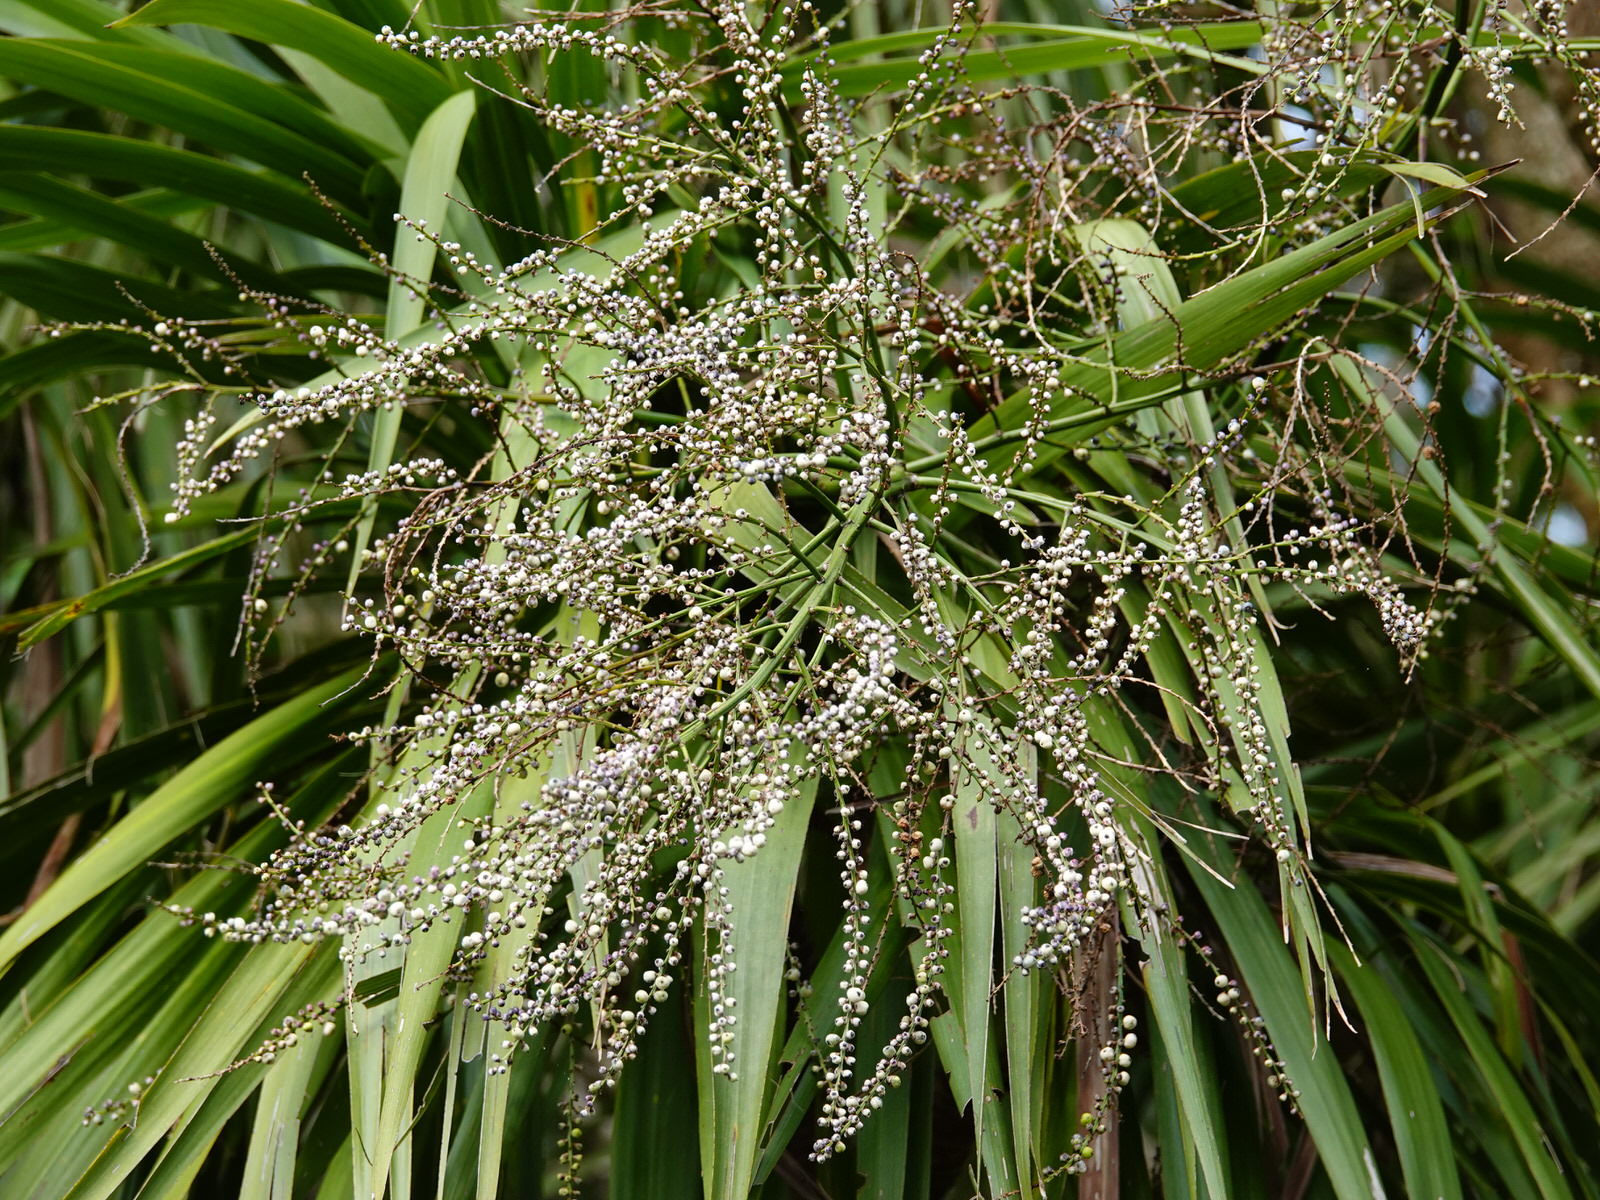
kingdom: Plantae
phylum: Tracheophyta
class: Liliopsida
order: Asparagales
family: Asparagaceae
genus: Cordyline
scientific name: Cordyline australis
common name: Cabbage-palm
